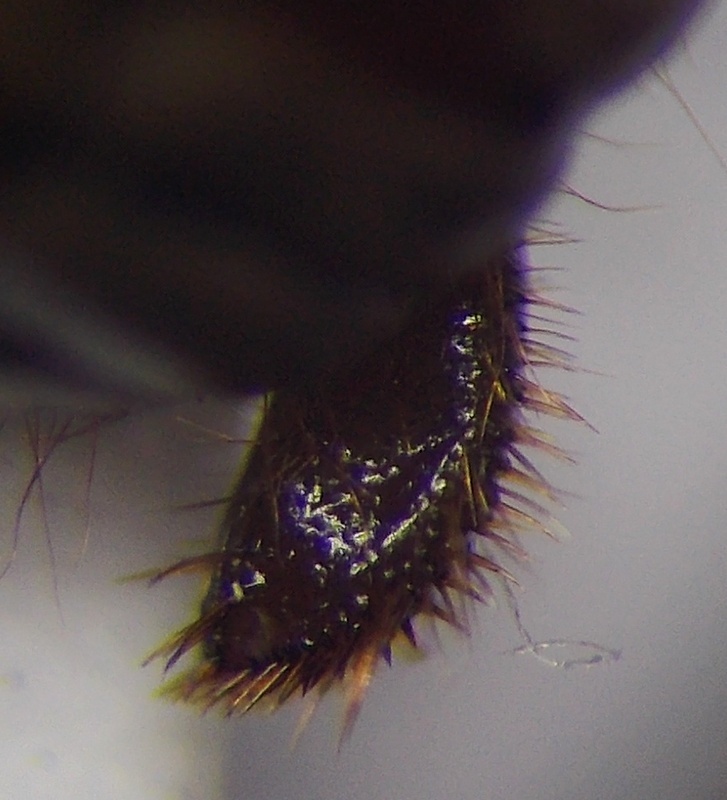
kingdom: Animalia
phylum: Arthropoda
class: Insecta
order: Hemiptera
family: Cydnidae
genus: Stibaropus
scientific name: Stibaropus henkei
